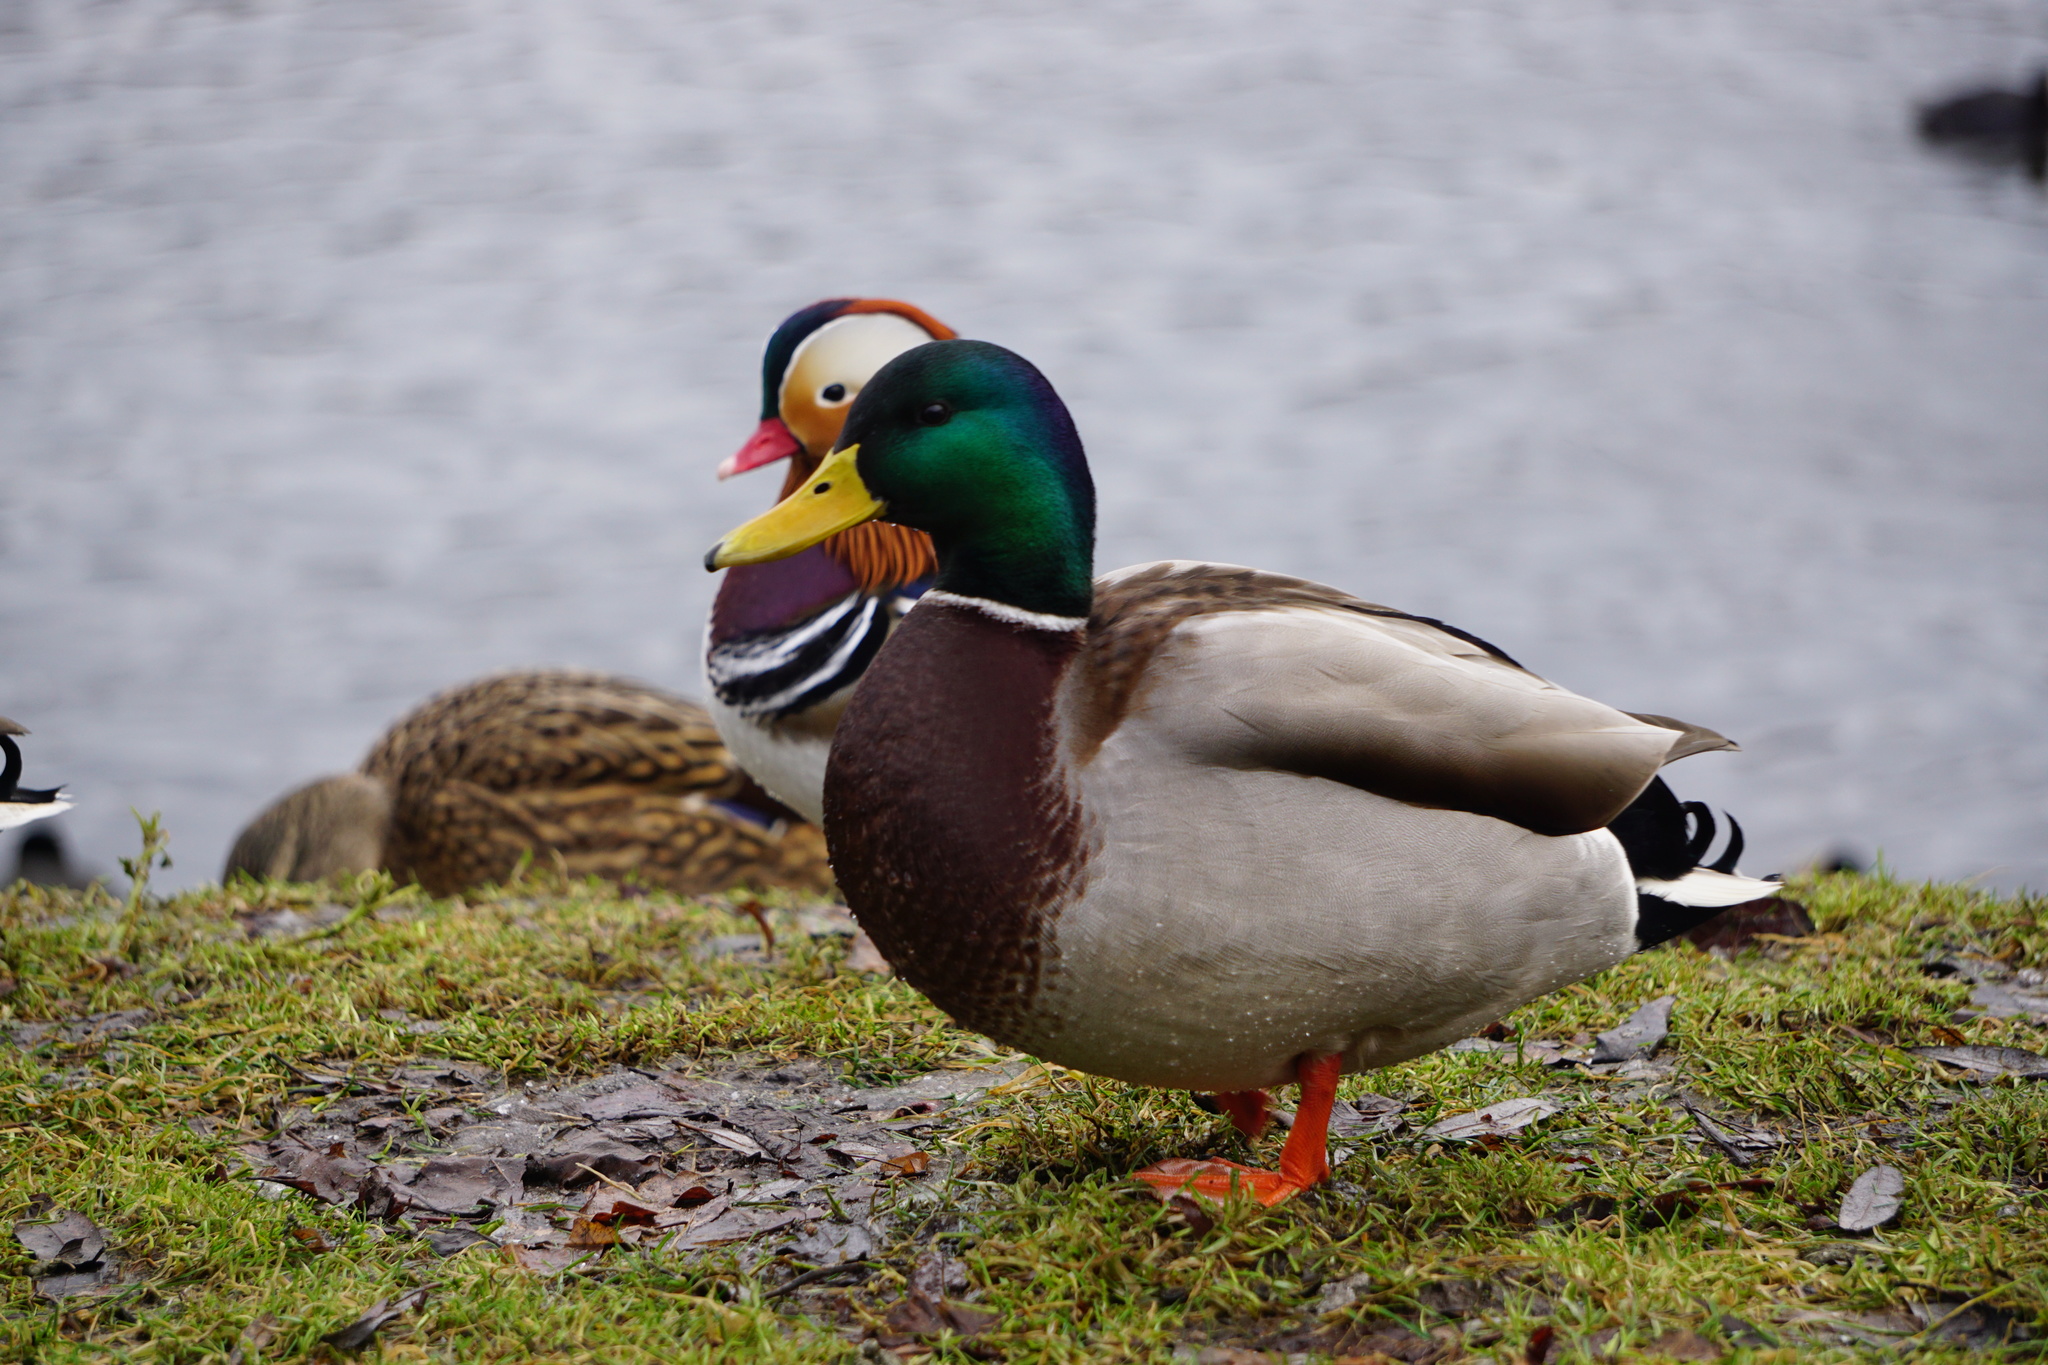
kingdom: Animalia
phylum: Chordata
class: Aves
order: Anseriformes
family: Anatidae
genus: Anas
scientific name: Anas platyrhynchos
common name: Mallard
